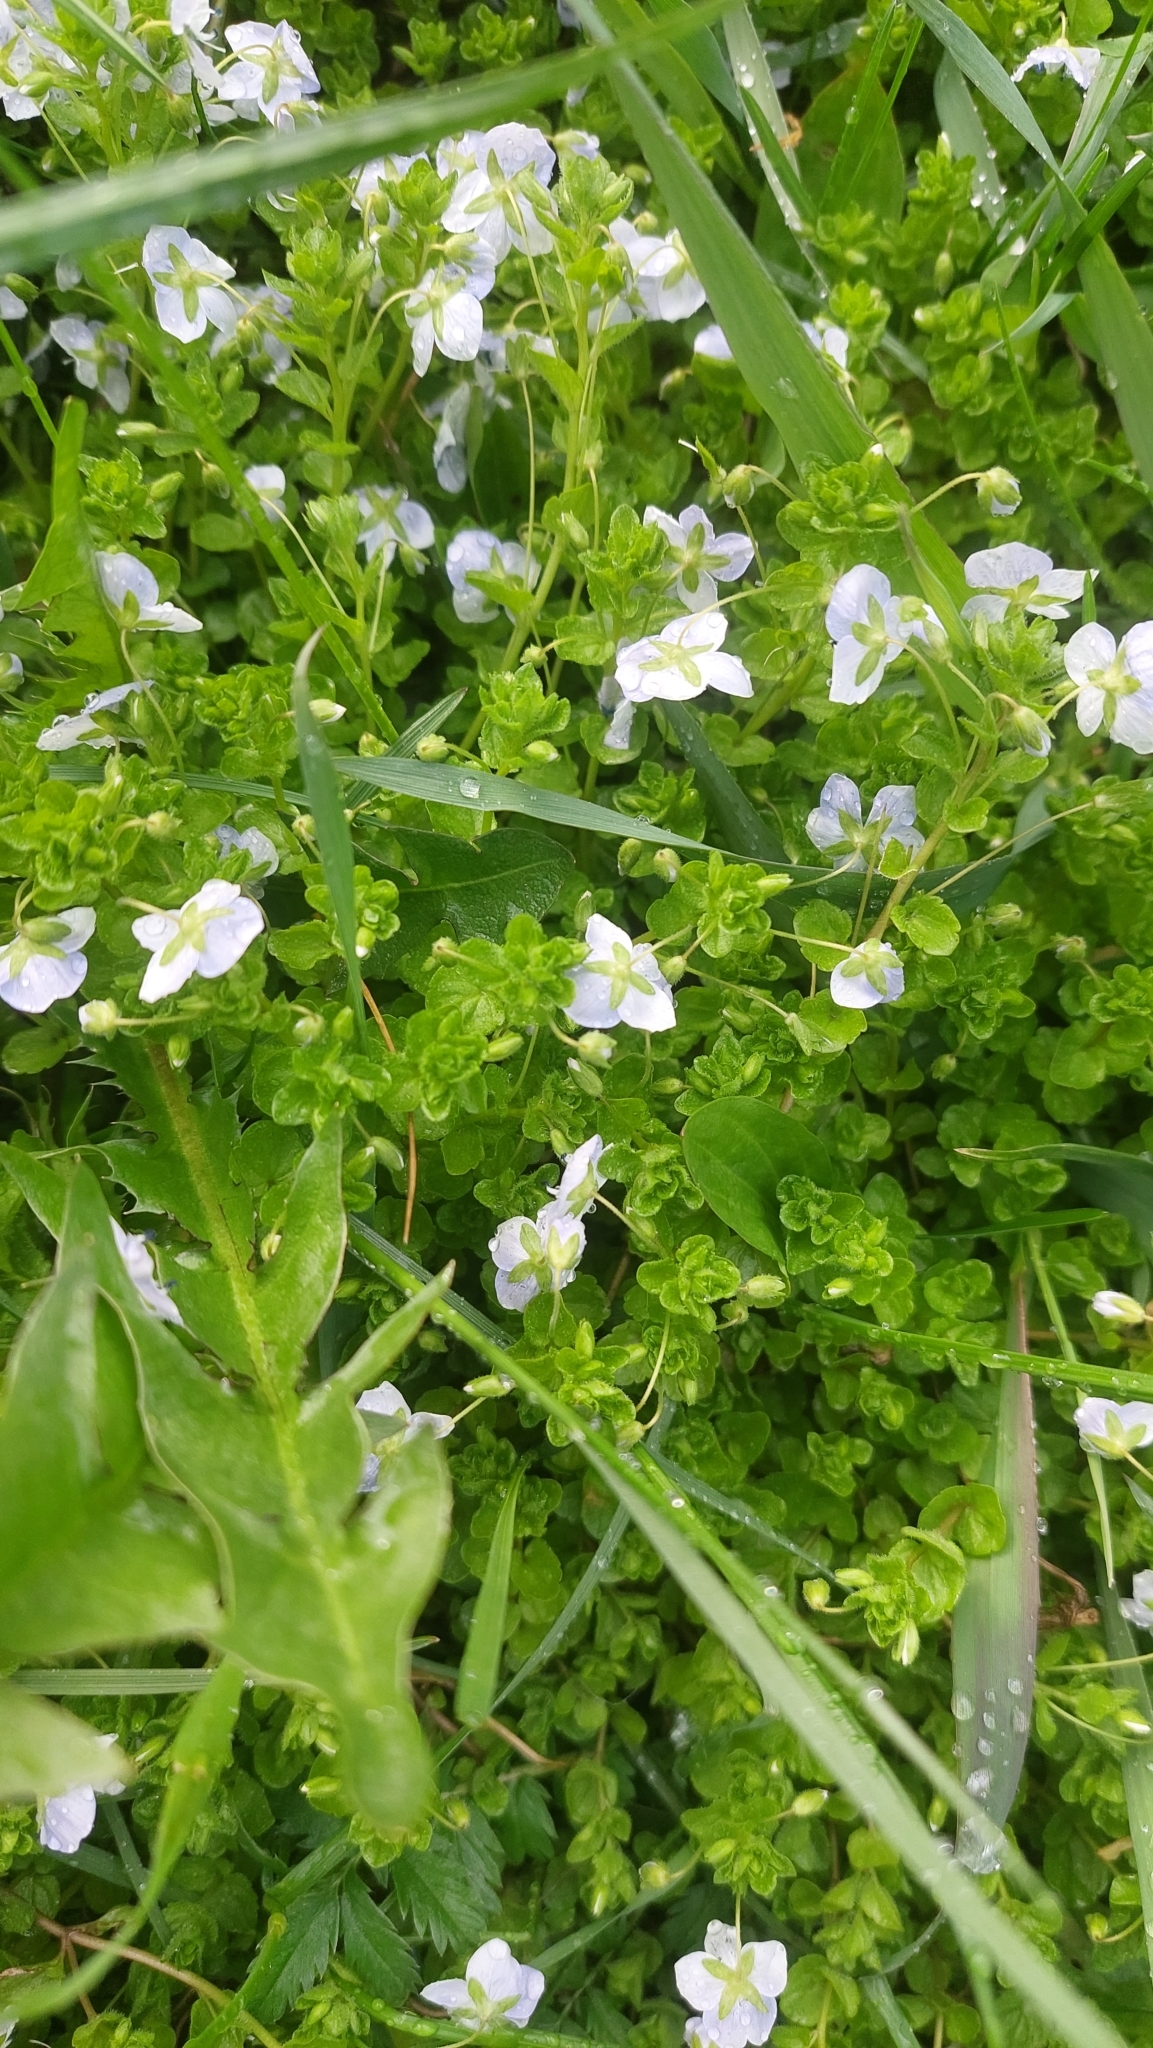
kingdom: Plantae
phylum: Tracheophyta
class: Magnoliopsida
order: Lamiales
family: Plantaginaceae
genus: Veronica
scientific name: Veronica filiformis
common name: Slender speedwell
